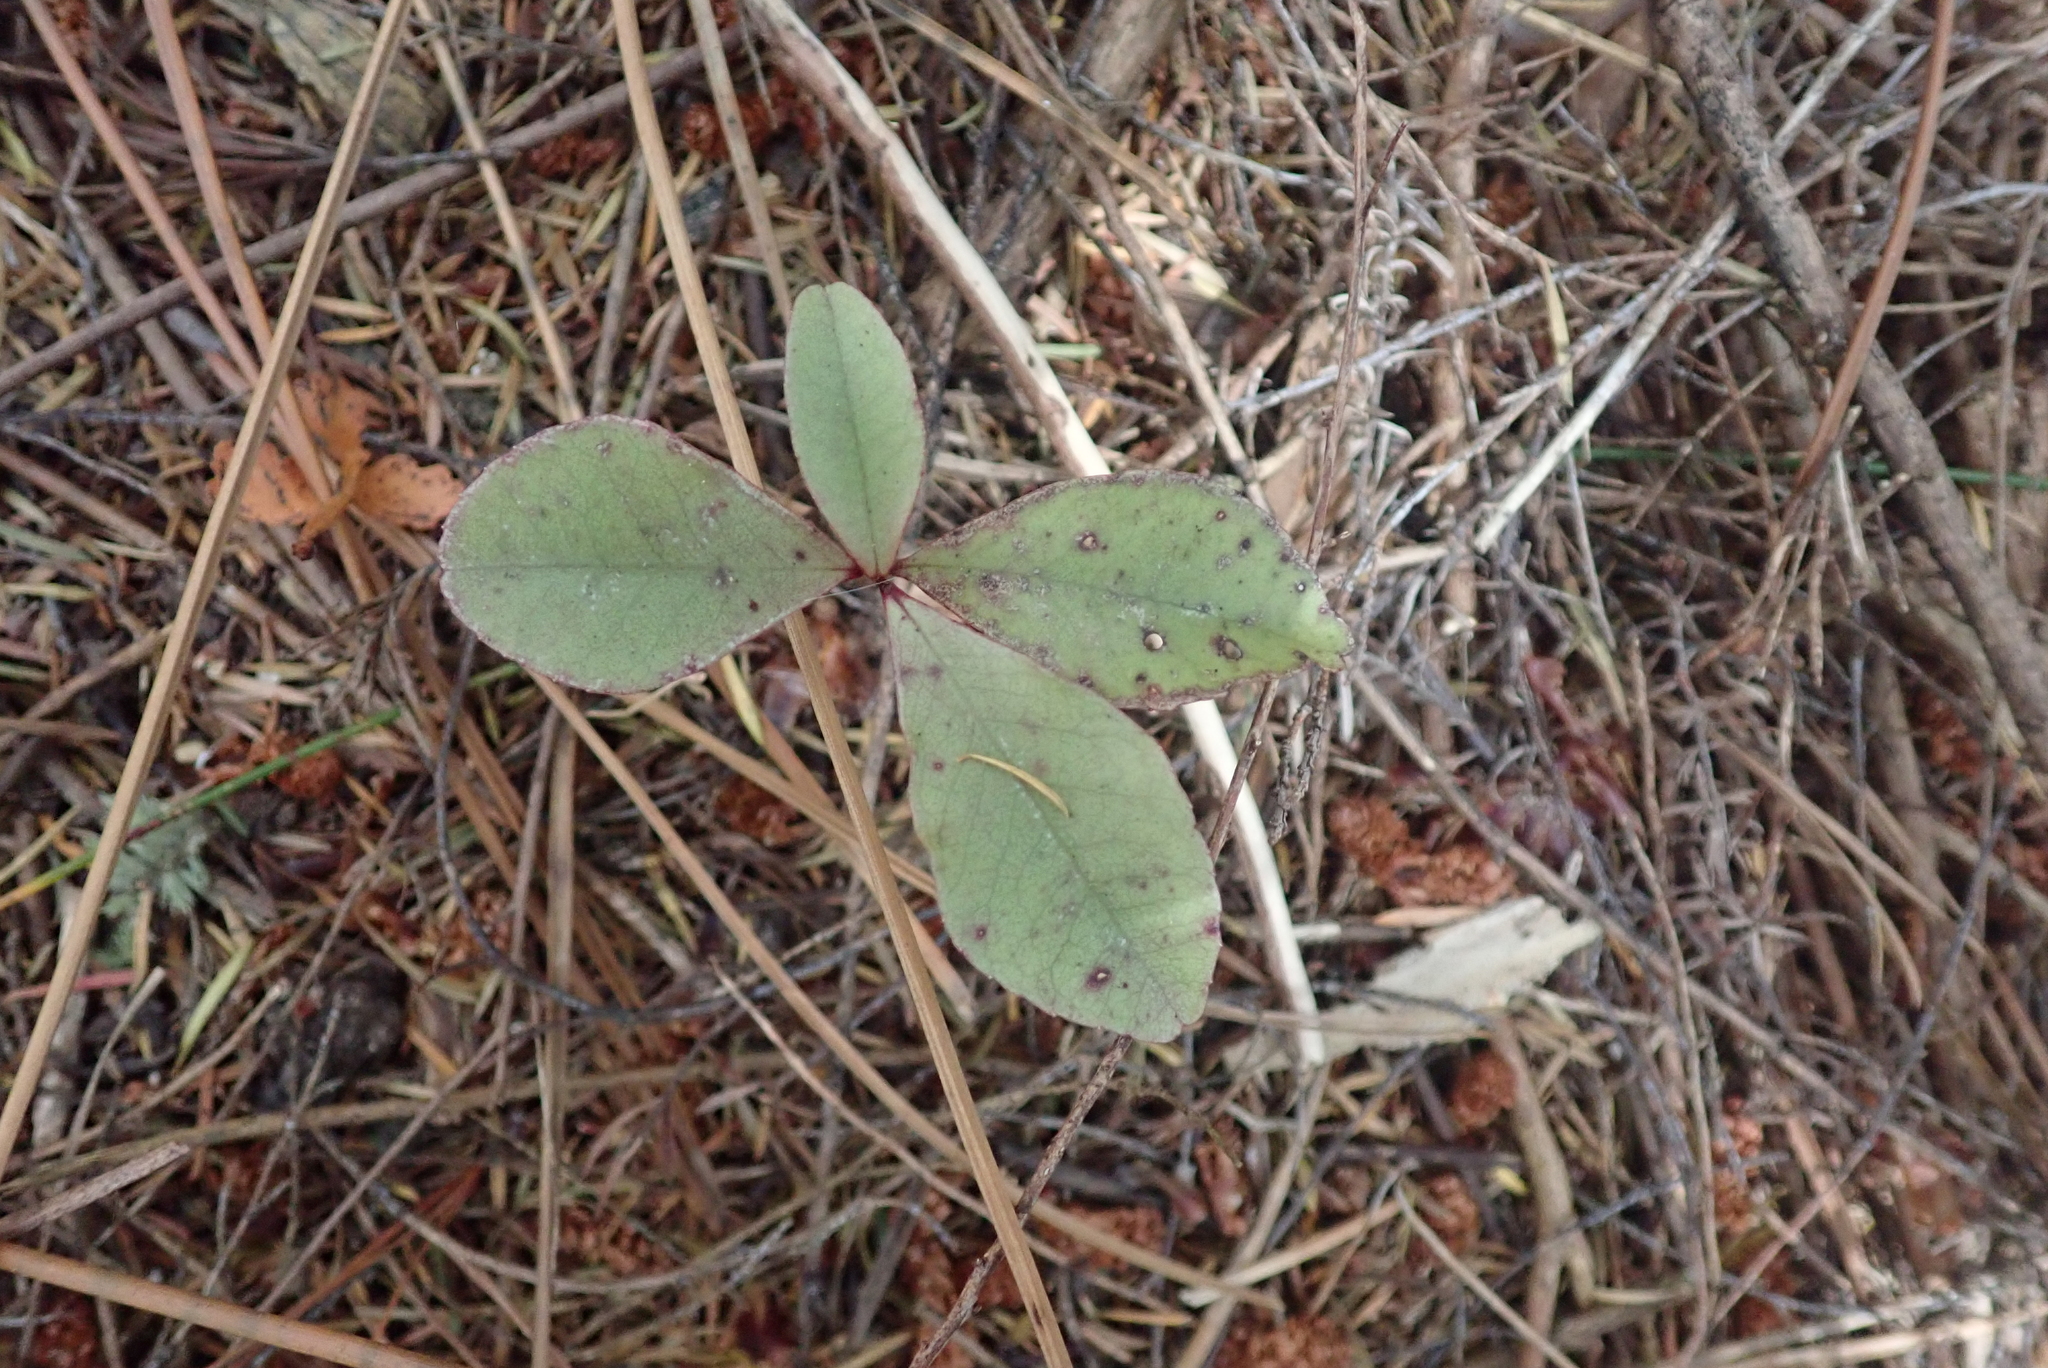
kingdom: Plantae
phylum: Tracheophyta
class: Magnoliopsida
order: Ericales
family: Primulaceae
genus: Myrsine
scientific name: Myrsine australis
